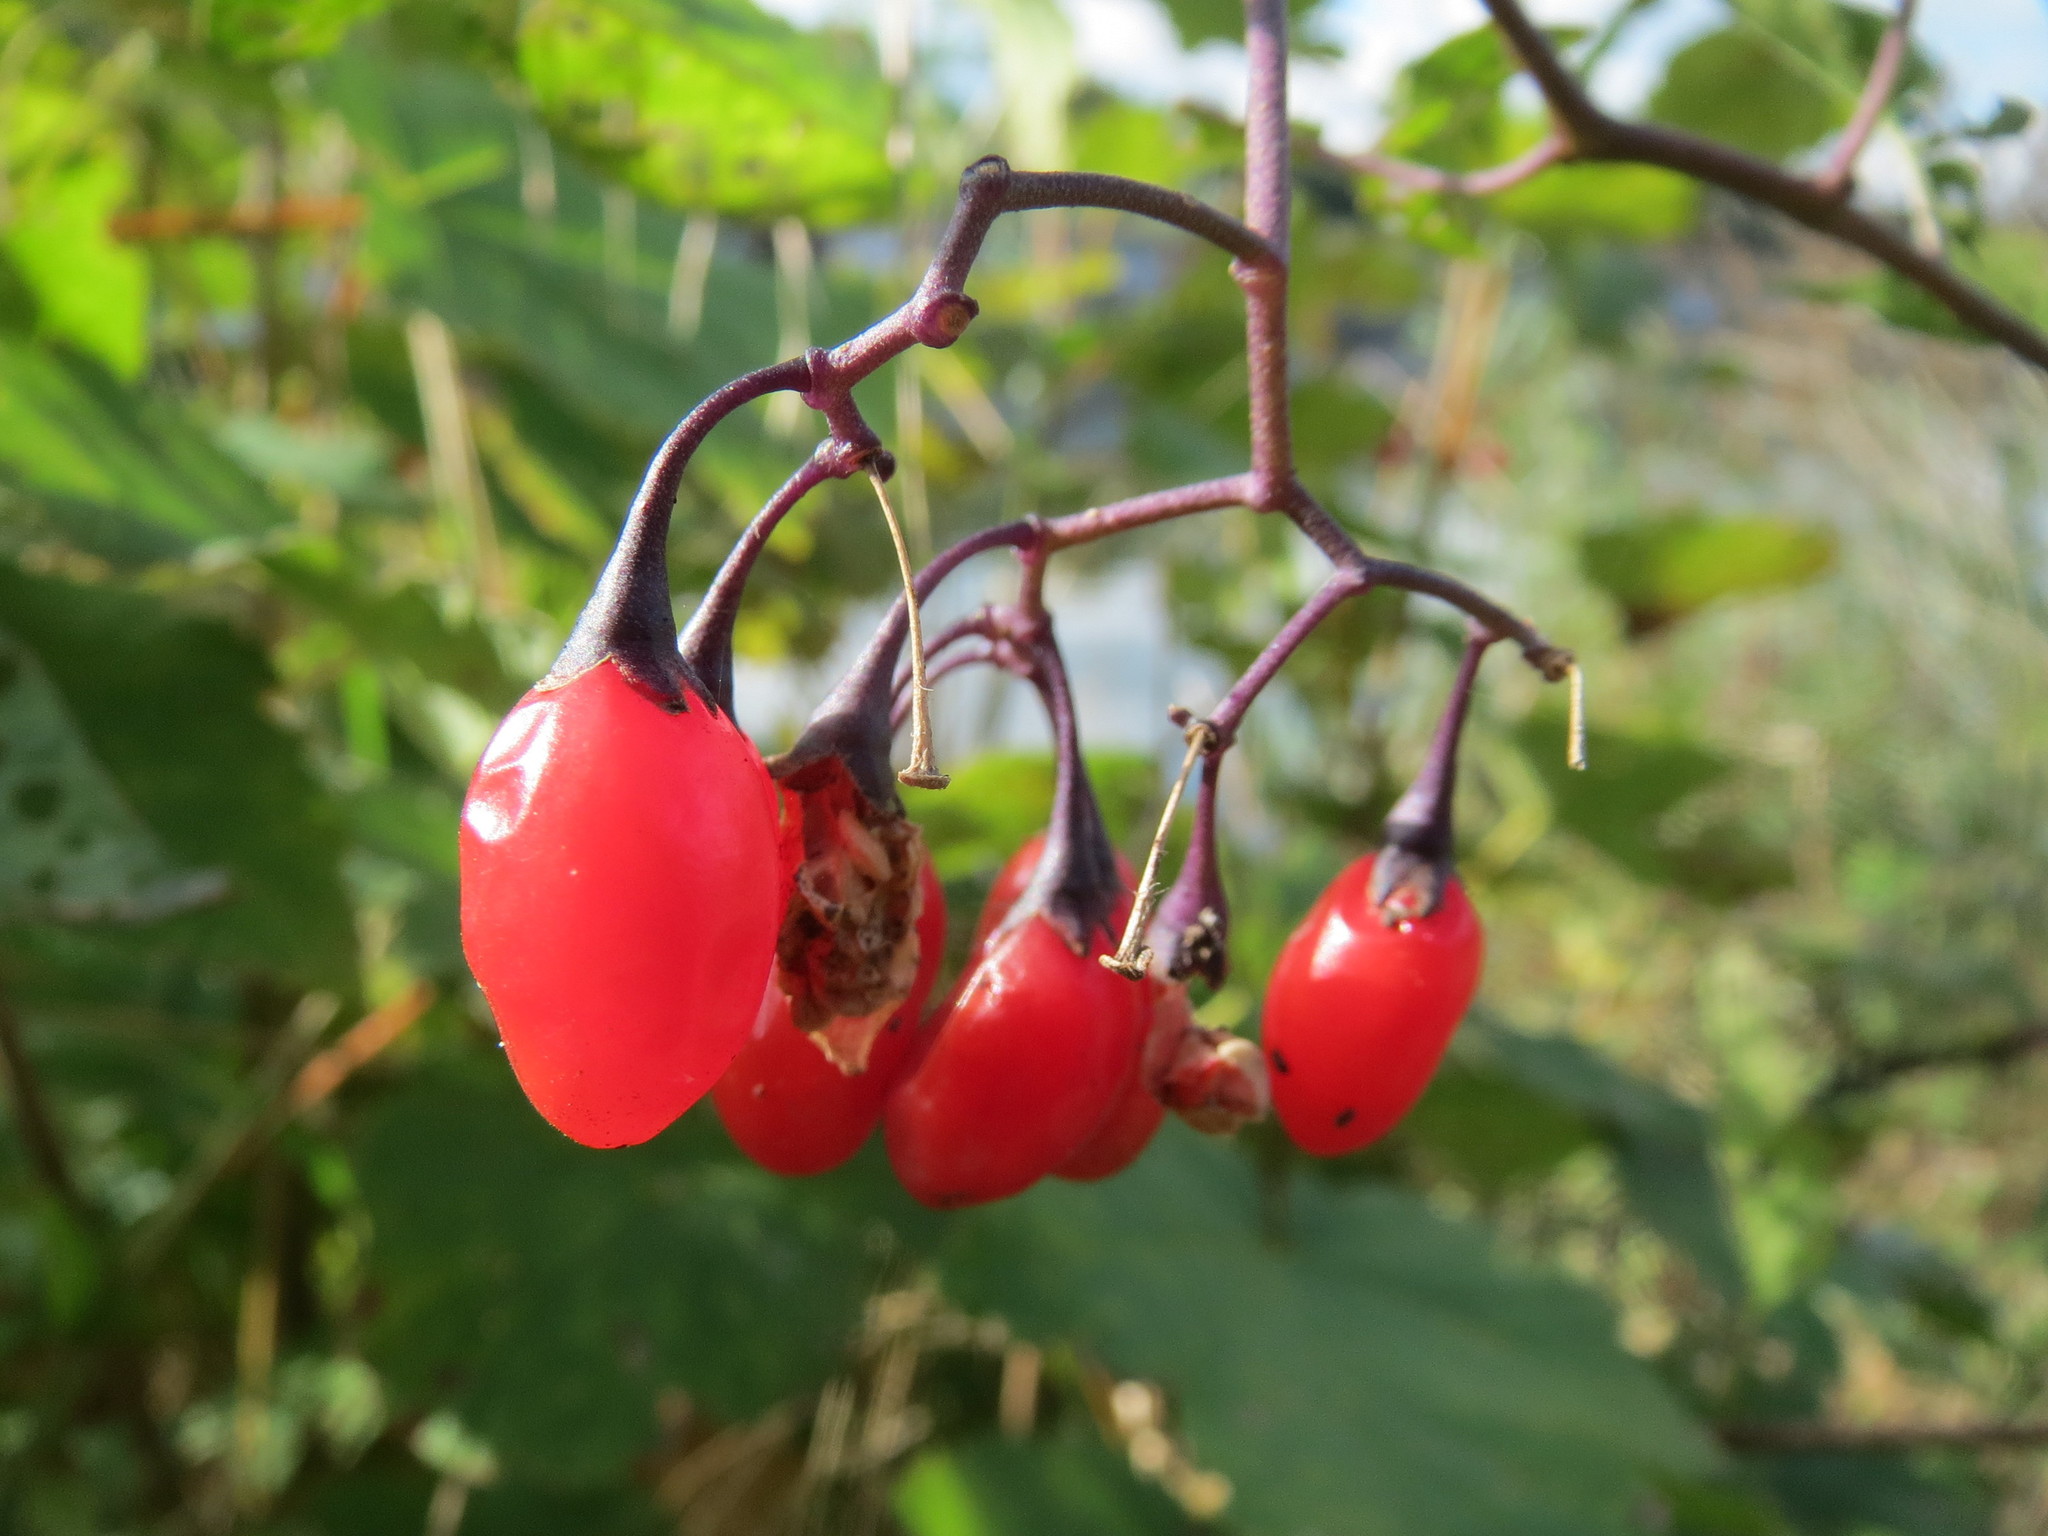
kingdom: Plantae
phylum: Tracheophyta
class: Magnoliopsida
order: Solanales
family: Solanaceae
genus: Solanum
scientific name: Solanum dulcamara
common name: Climbing nightshade
